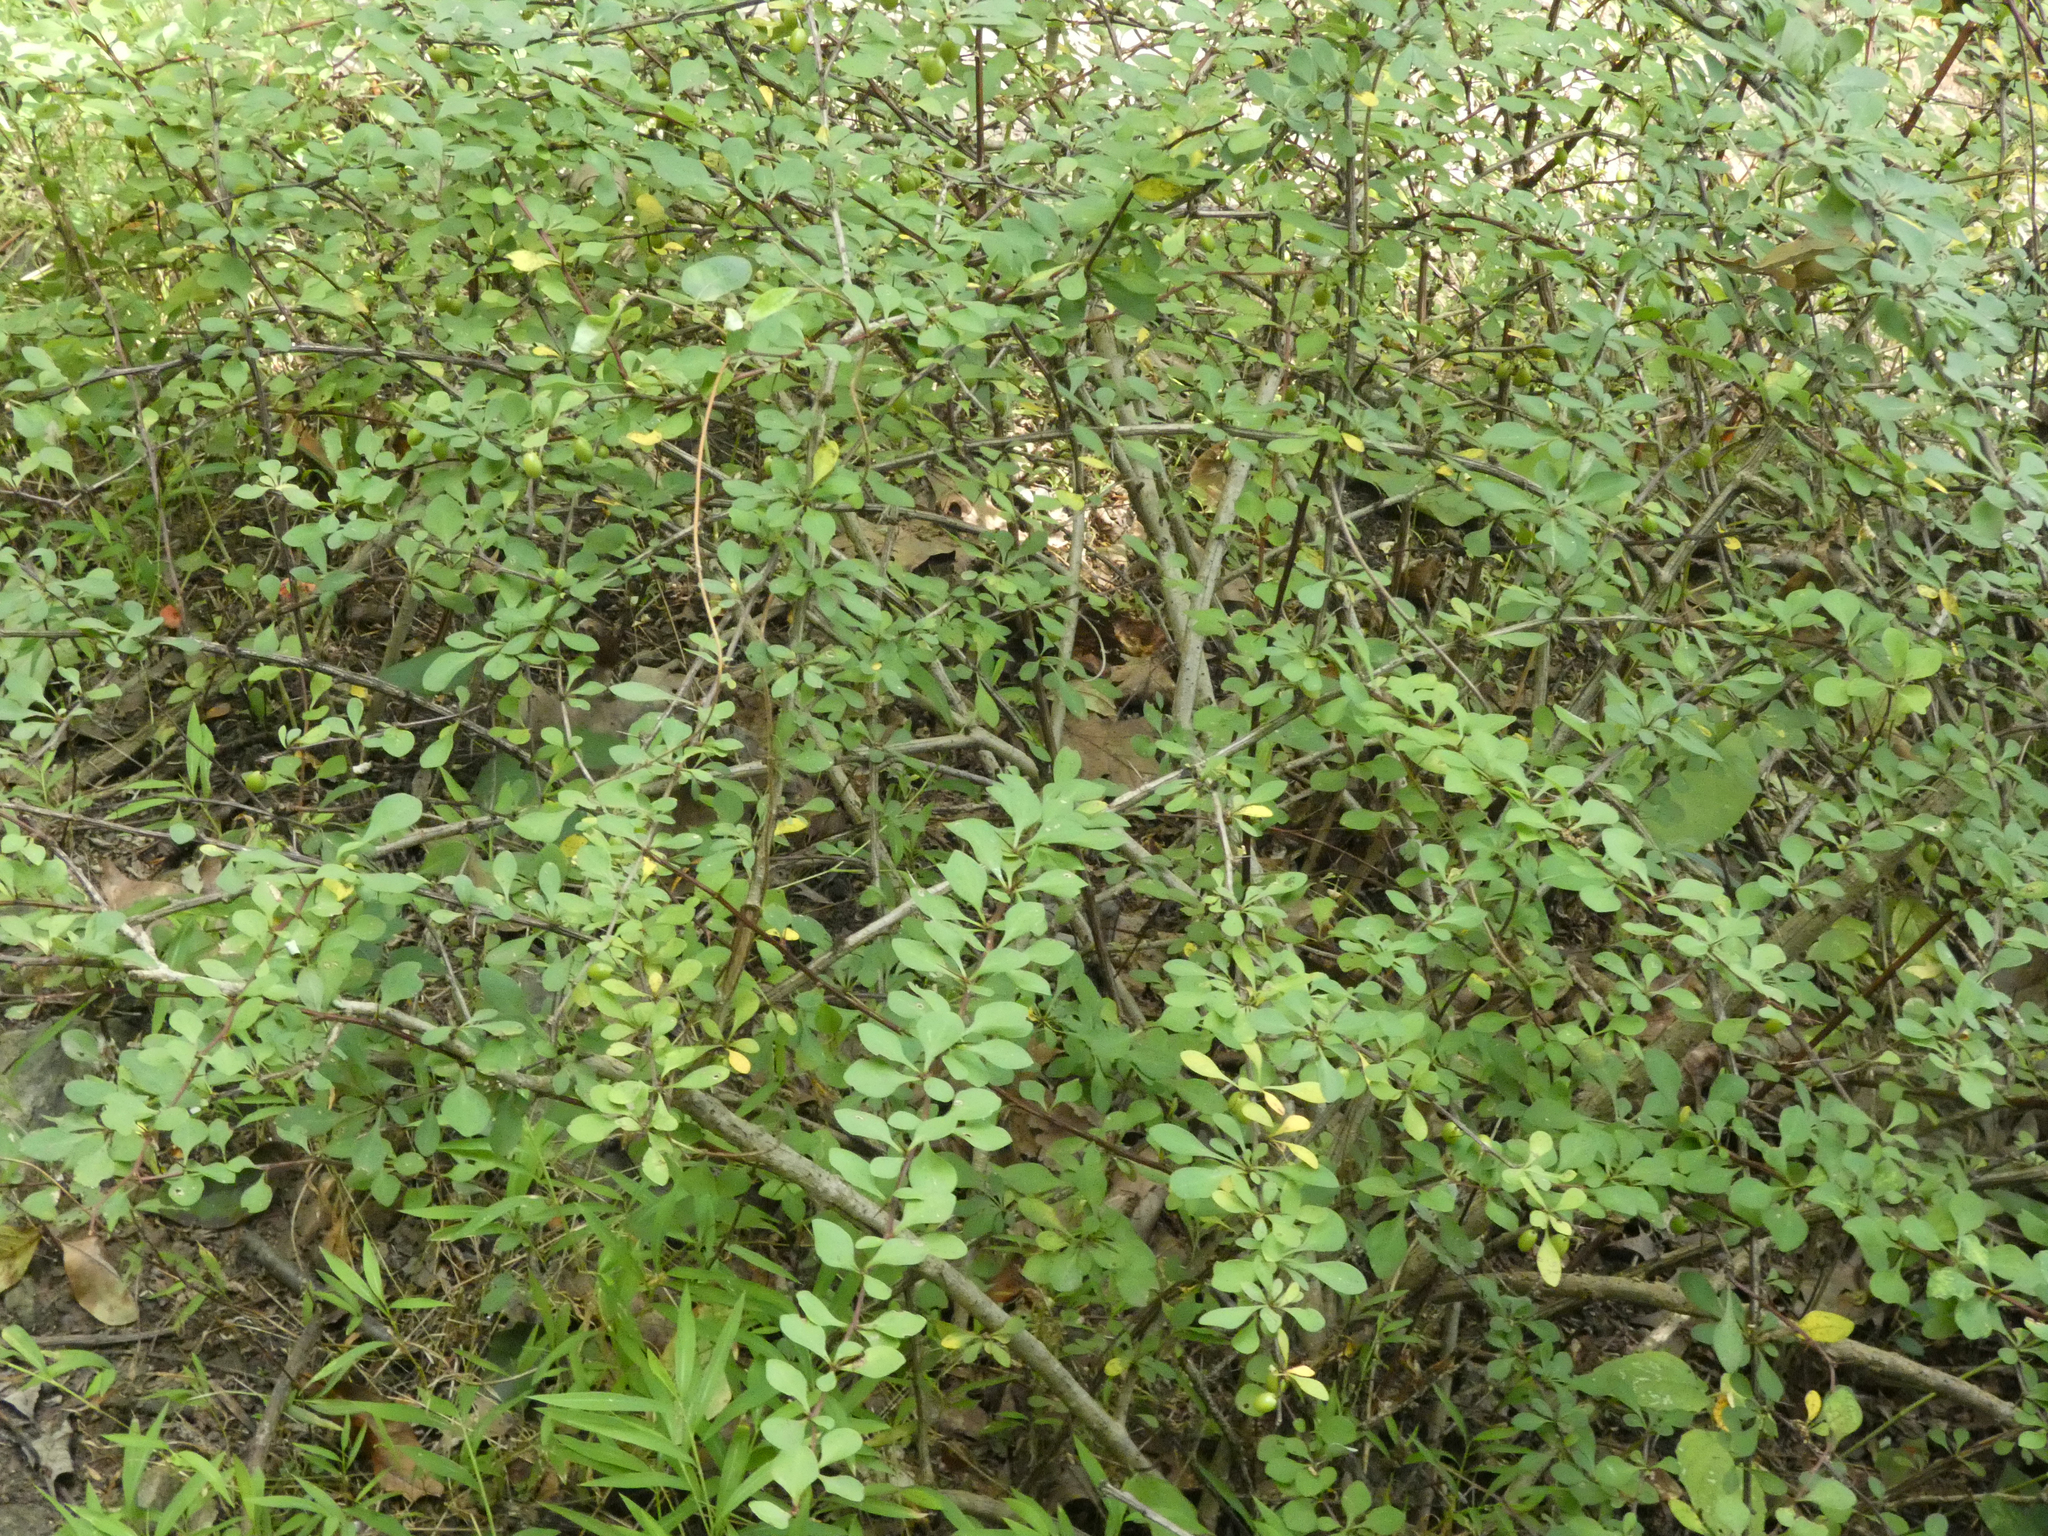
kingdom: Plantae
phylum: Tracheophyta
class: Magnoliopsida
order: Ranunculales
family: Berberidaceae
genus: Berberis
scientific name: Berberis thunbergii
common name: Japanese barberry
